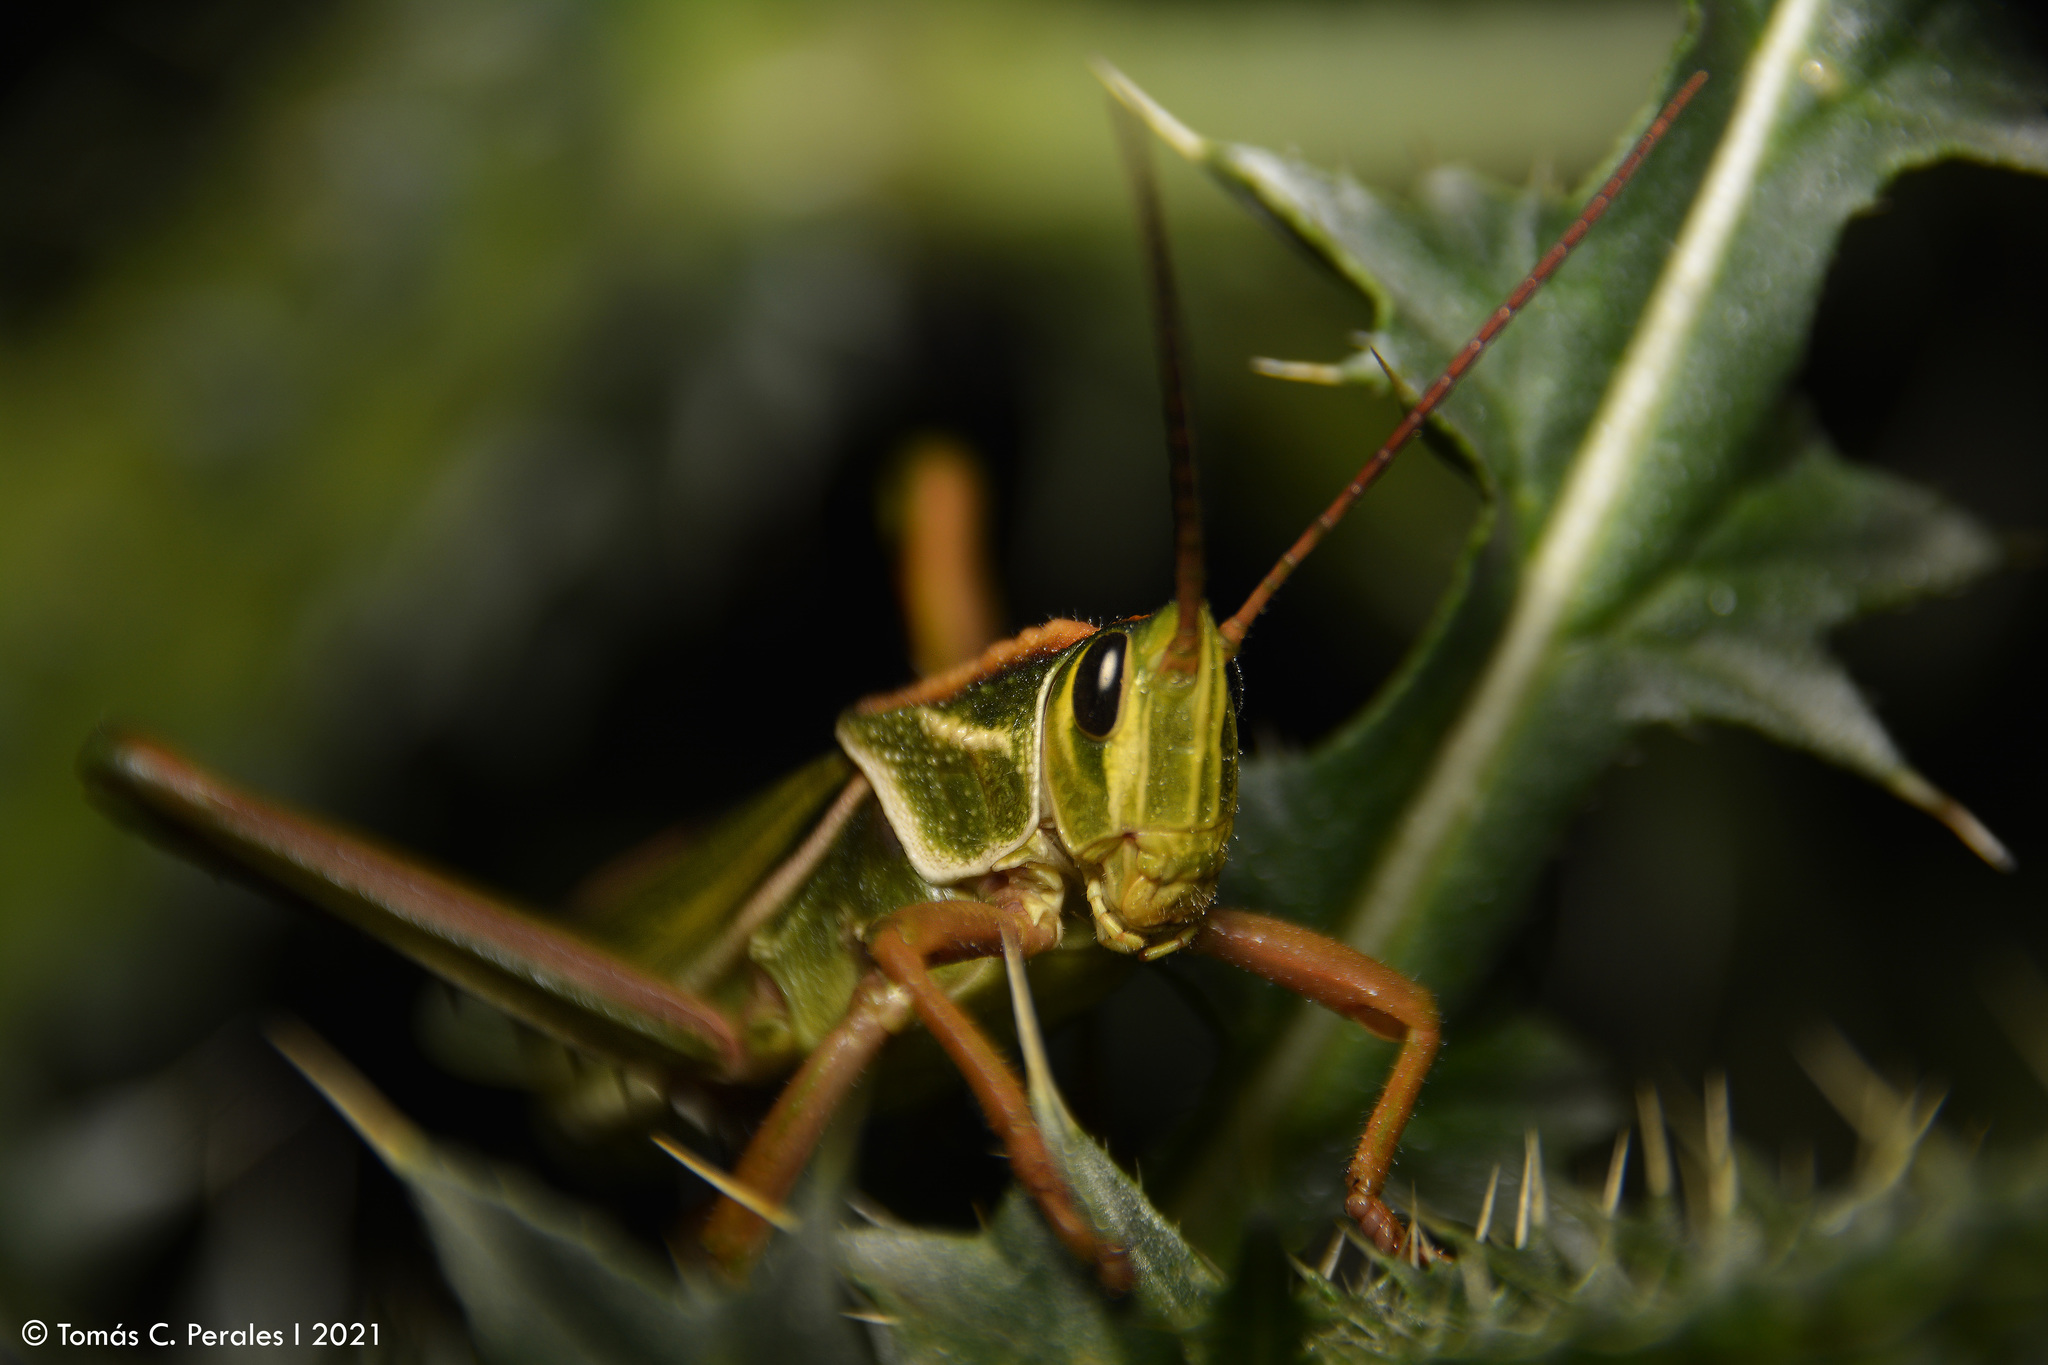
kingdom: Animalia
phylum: Arthropoda
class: Insecta
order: Orthoptera
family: Romaleidae
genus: Staleochlora
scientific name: Staleochlora viridicata
